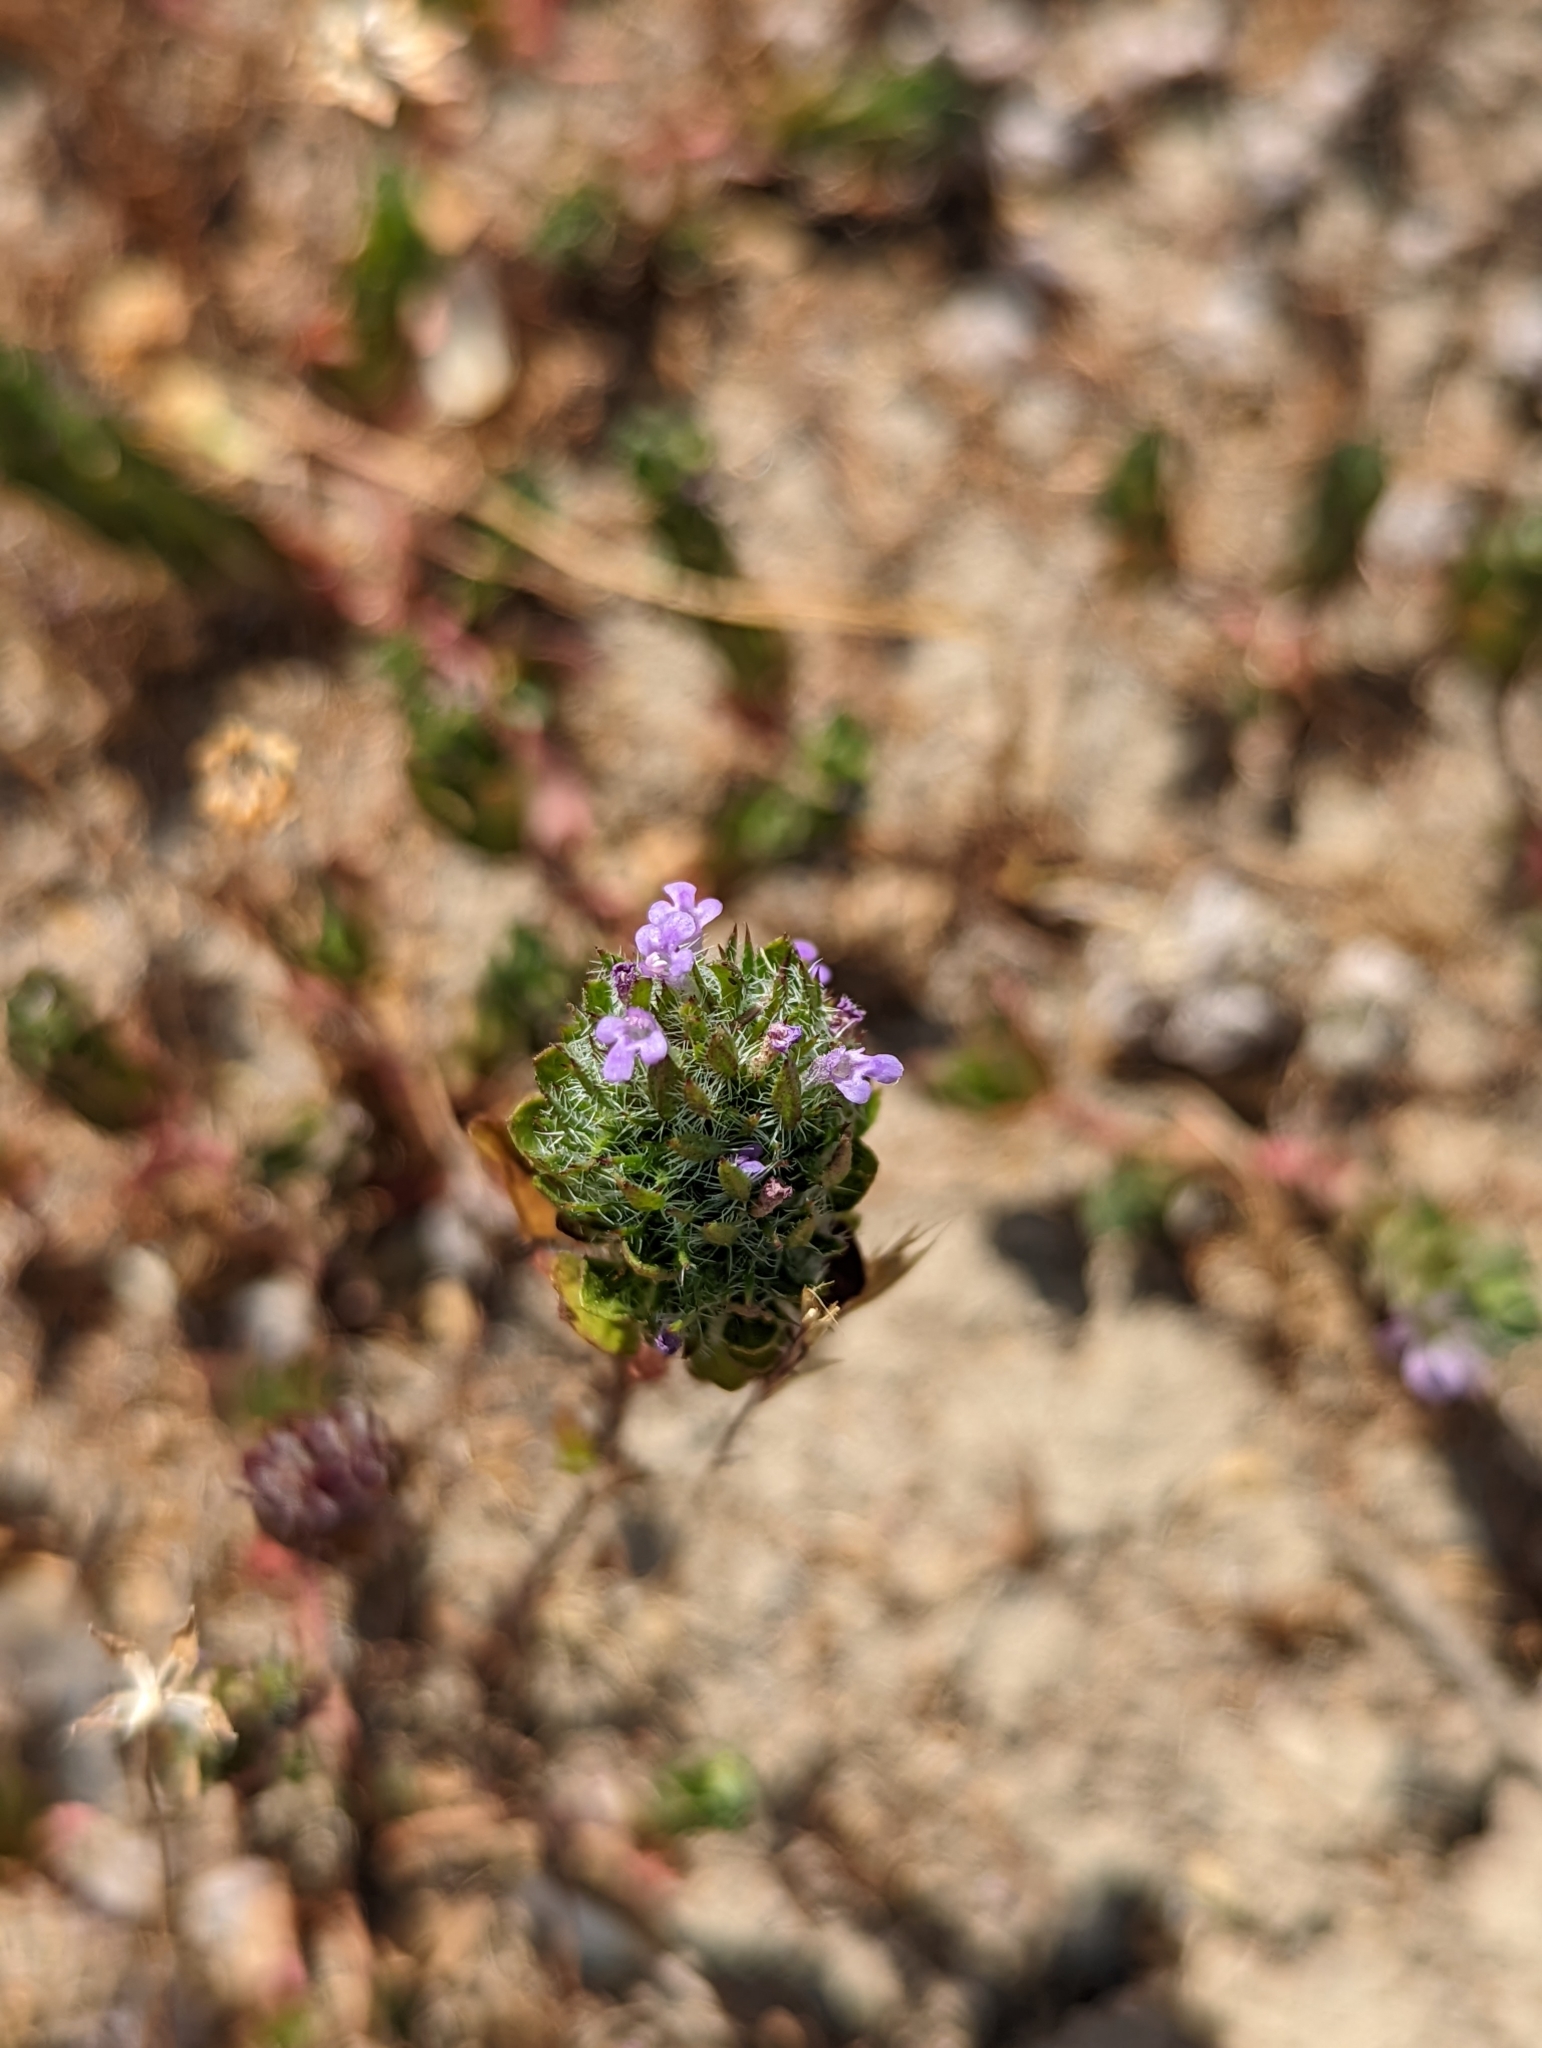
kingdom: Plantae
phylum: Tracheophyta
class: Magnoliopsida
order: Lamiales
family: Lamiaceae
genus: Pogogyne
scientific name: Pogogyne zizyphoroides
